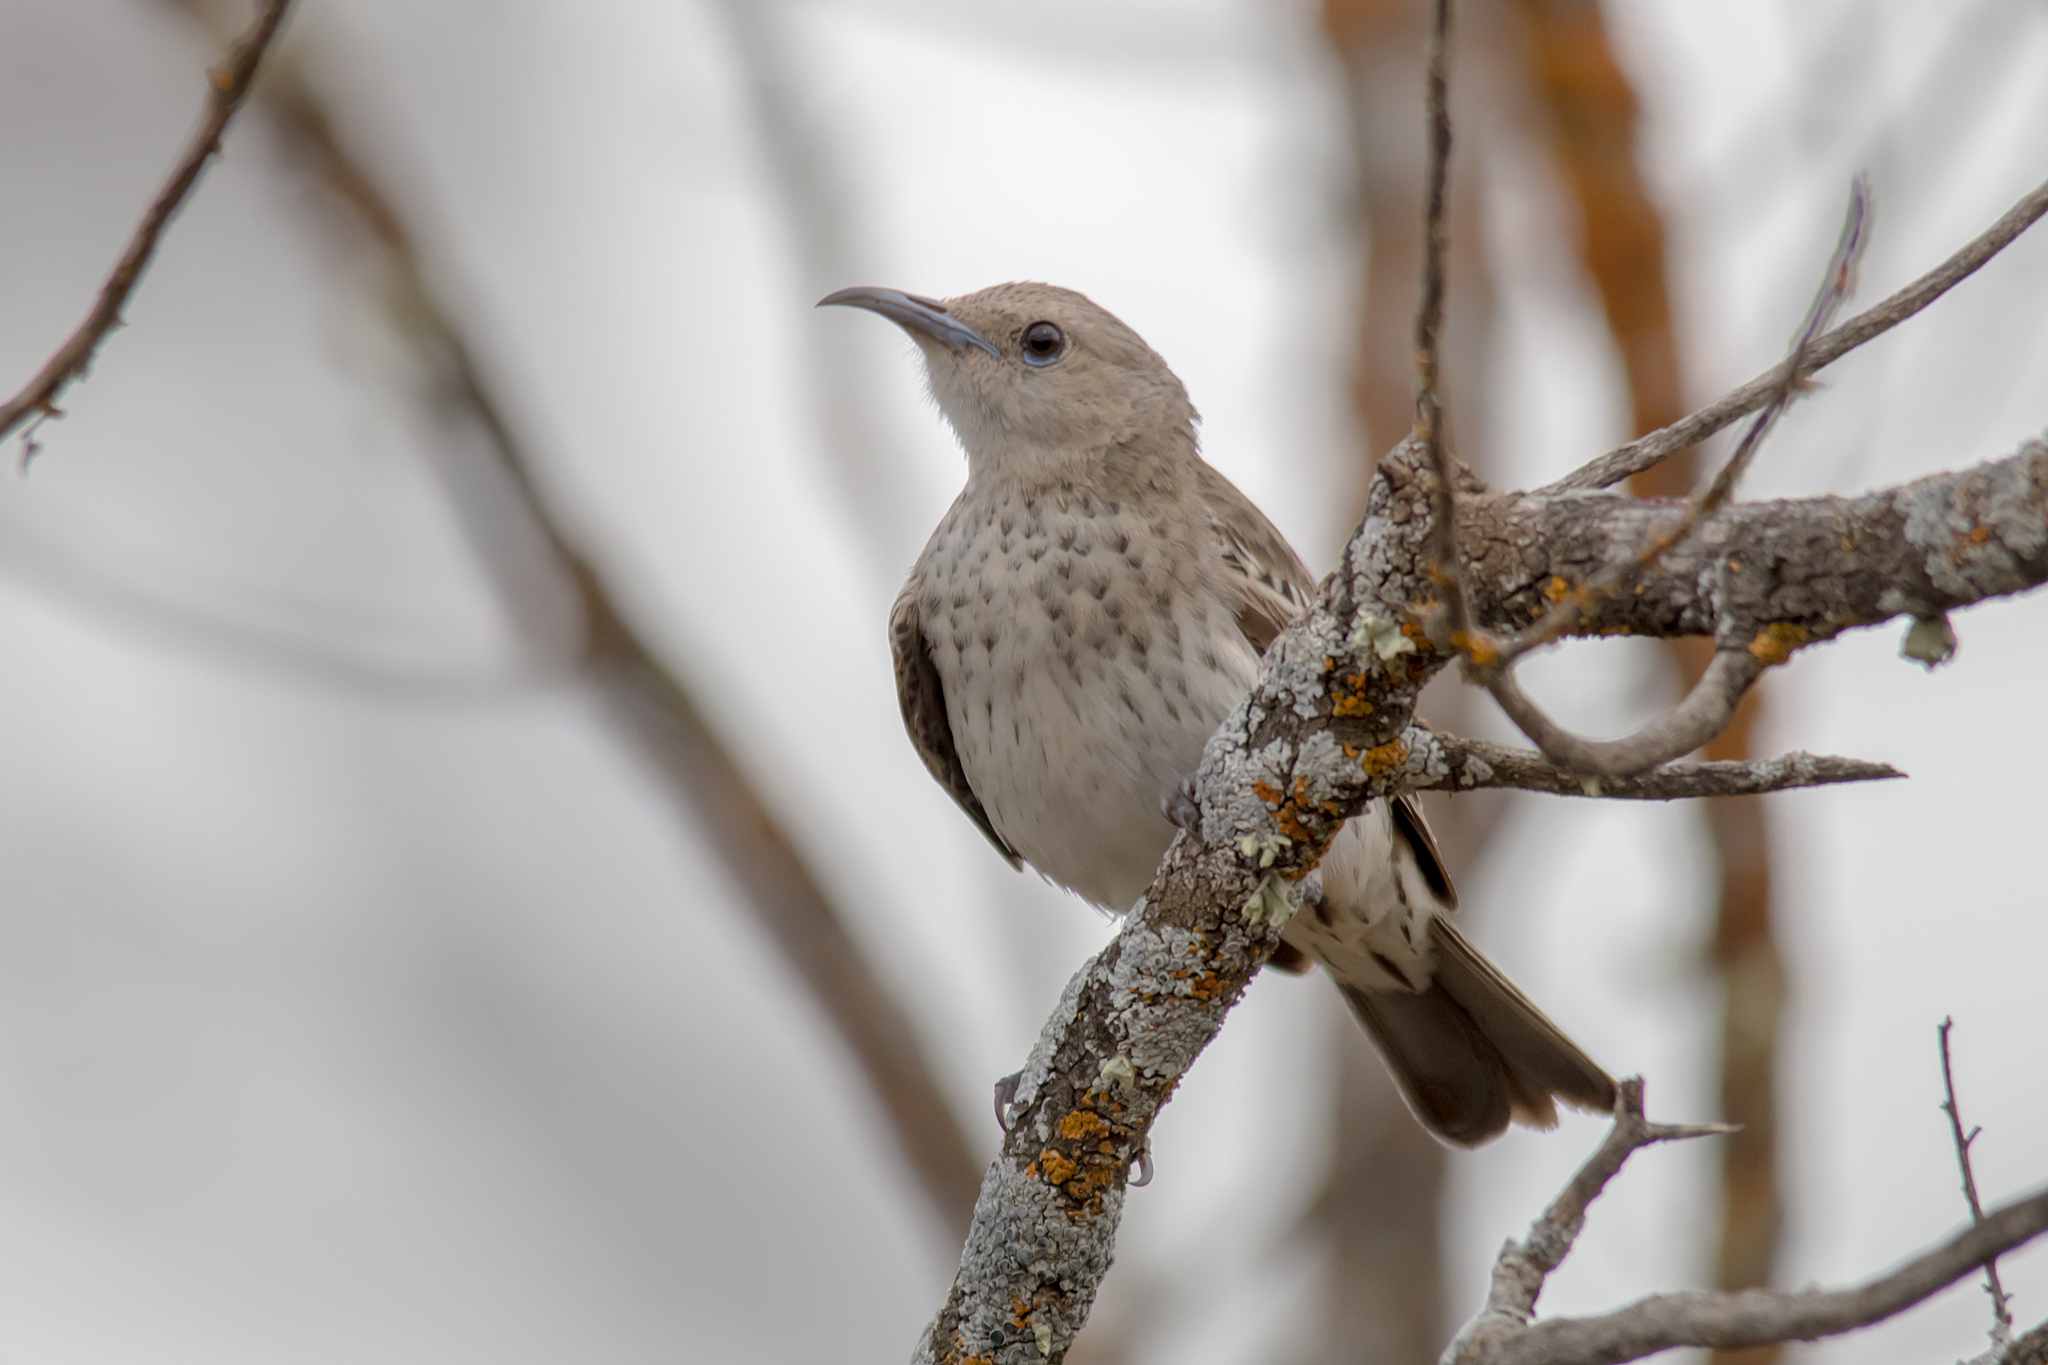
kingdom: Animalia
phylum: Chordata
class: Aves
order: Passeriformes
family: Meliphagidae
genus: Certhionyx
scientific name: Certhionyx variegatus
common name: Pied honeyeater
